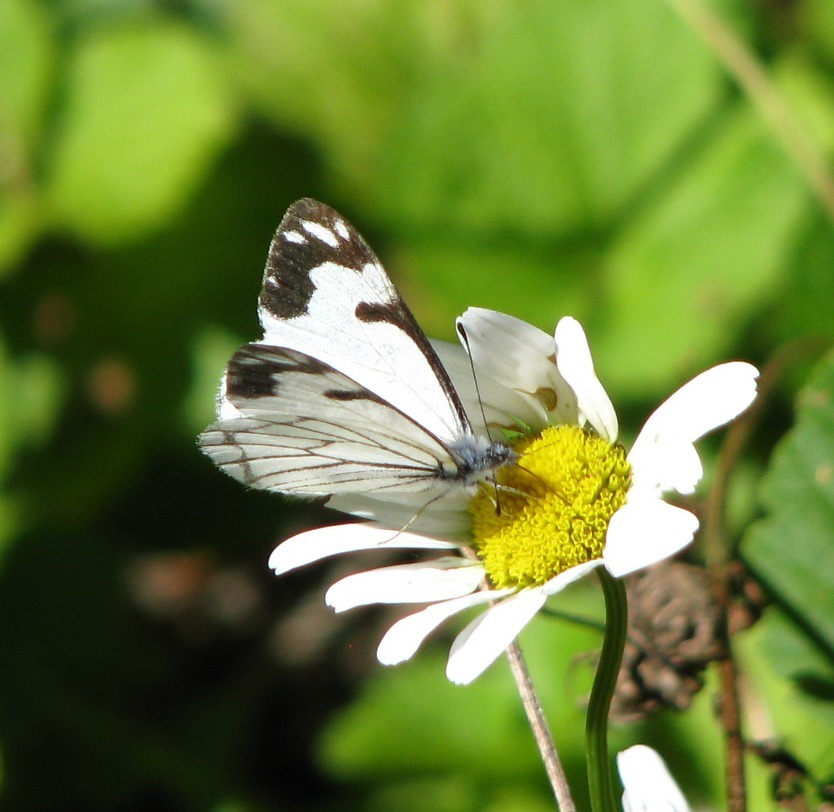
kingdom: Animalia
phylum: Arthropoda
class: Insecta
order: Lepidoptera
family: Pieridae
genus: Neophasia
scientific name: Neophasia menapia
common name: Pine white
